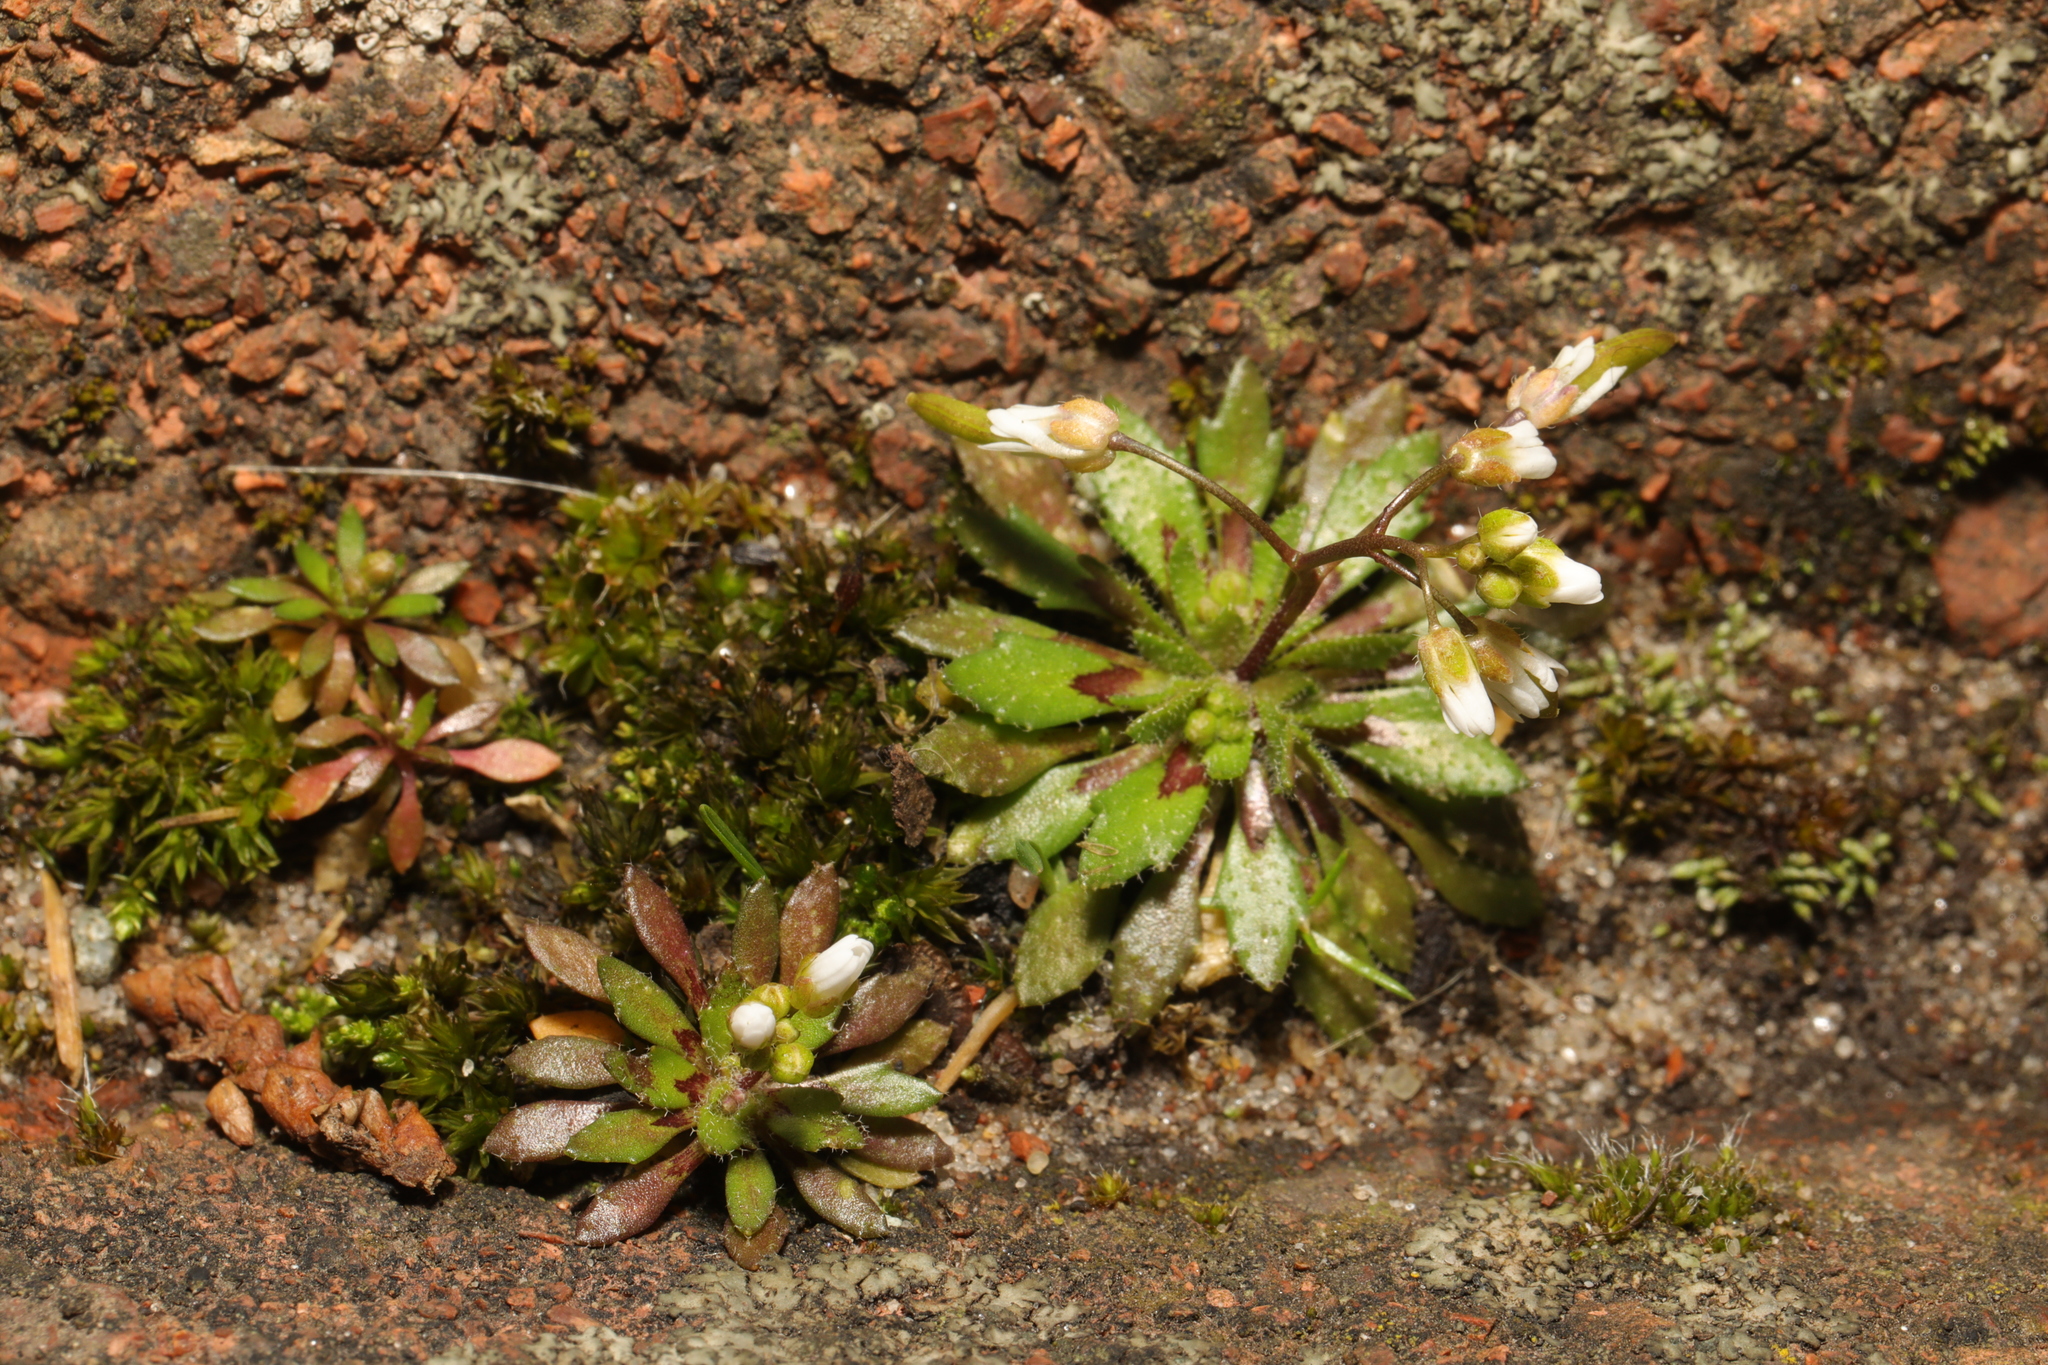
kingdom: Plantae
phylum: Tracheophyta
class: Magnoliopsida
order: Brassicales
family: Brassicaceae
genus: Draba
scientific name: Draba verna
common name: Spring draba
